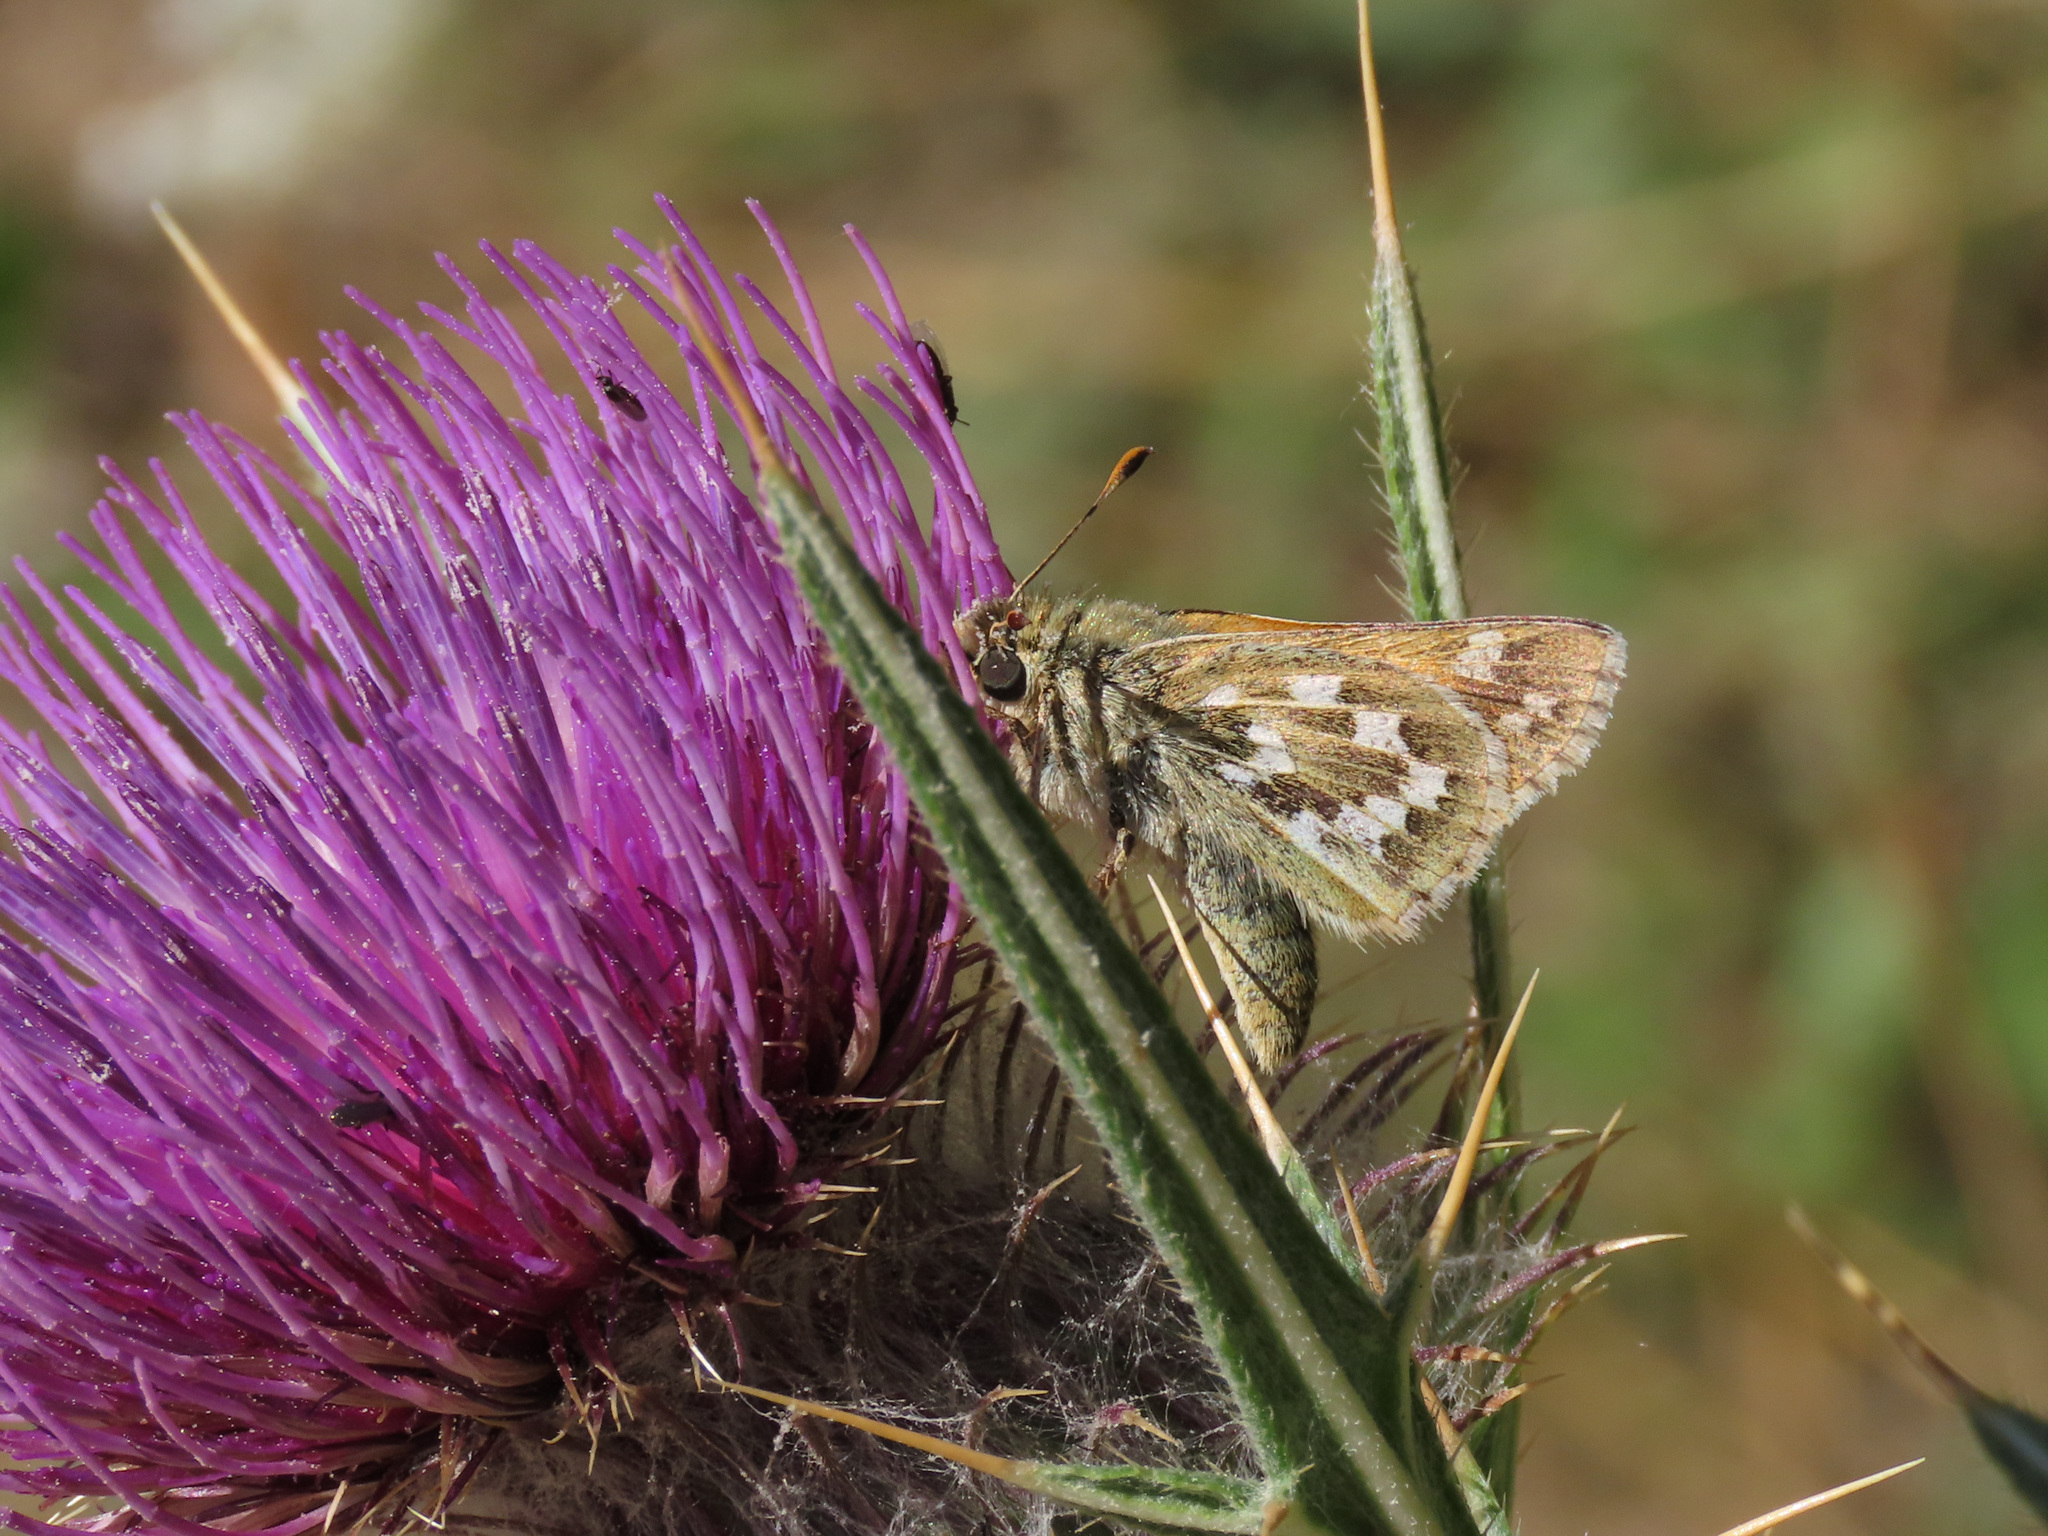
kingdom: Animalia
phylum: Arthropoda
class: Insecta
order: Lepidoptera
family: Hesperiidae
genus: Hesperia
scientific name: Hesperia comma
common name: Common branded skipper
